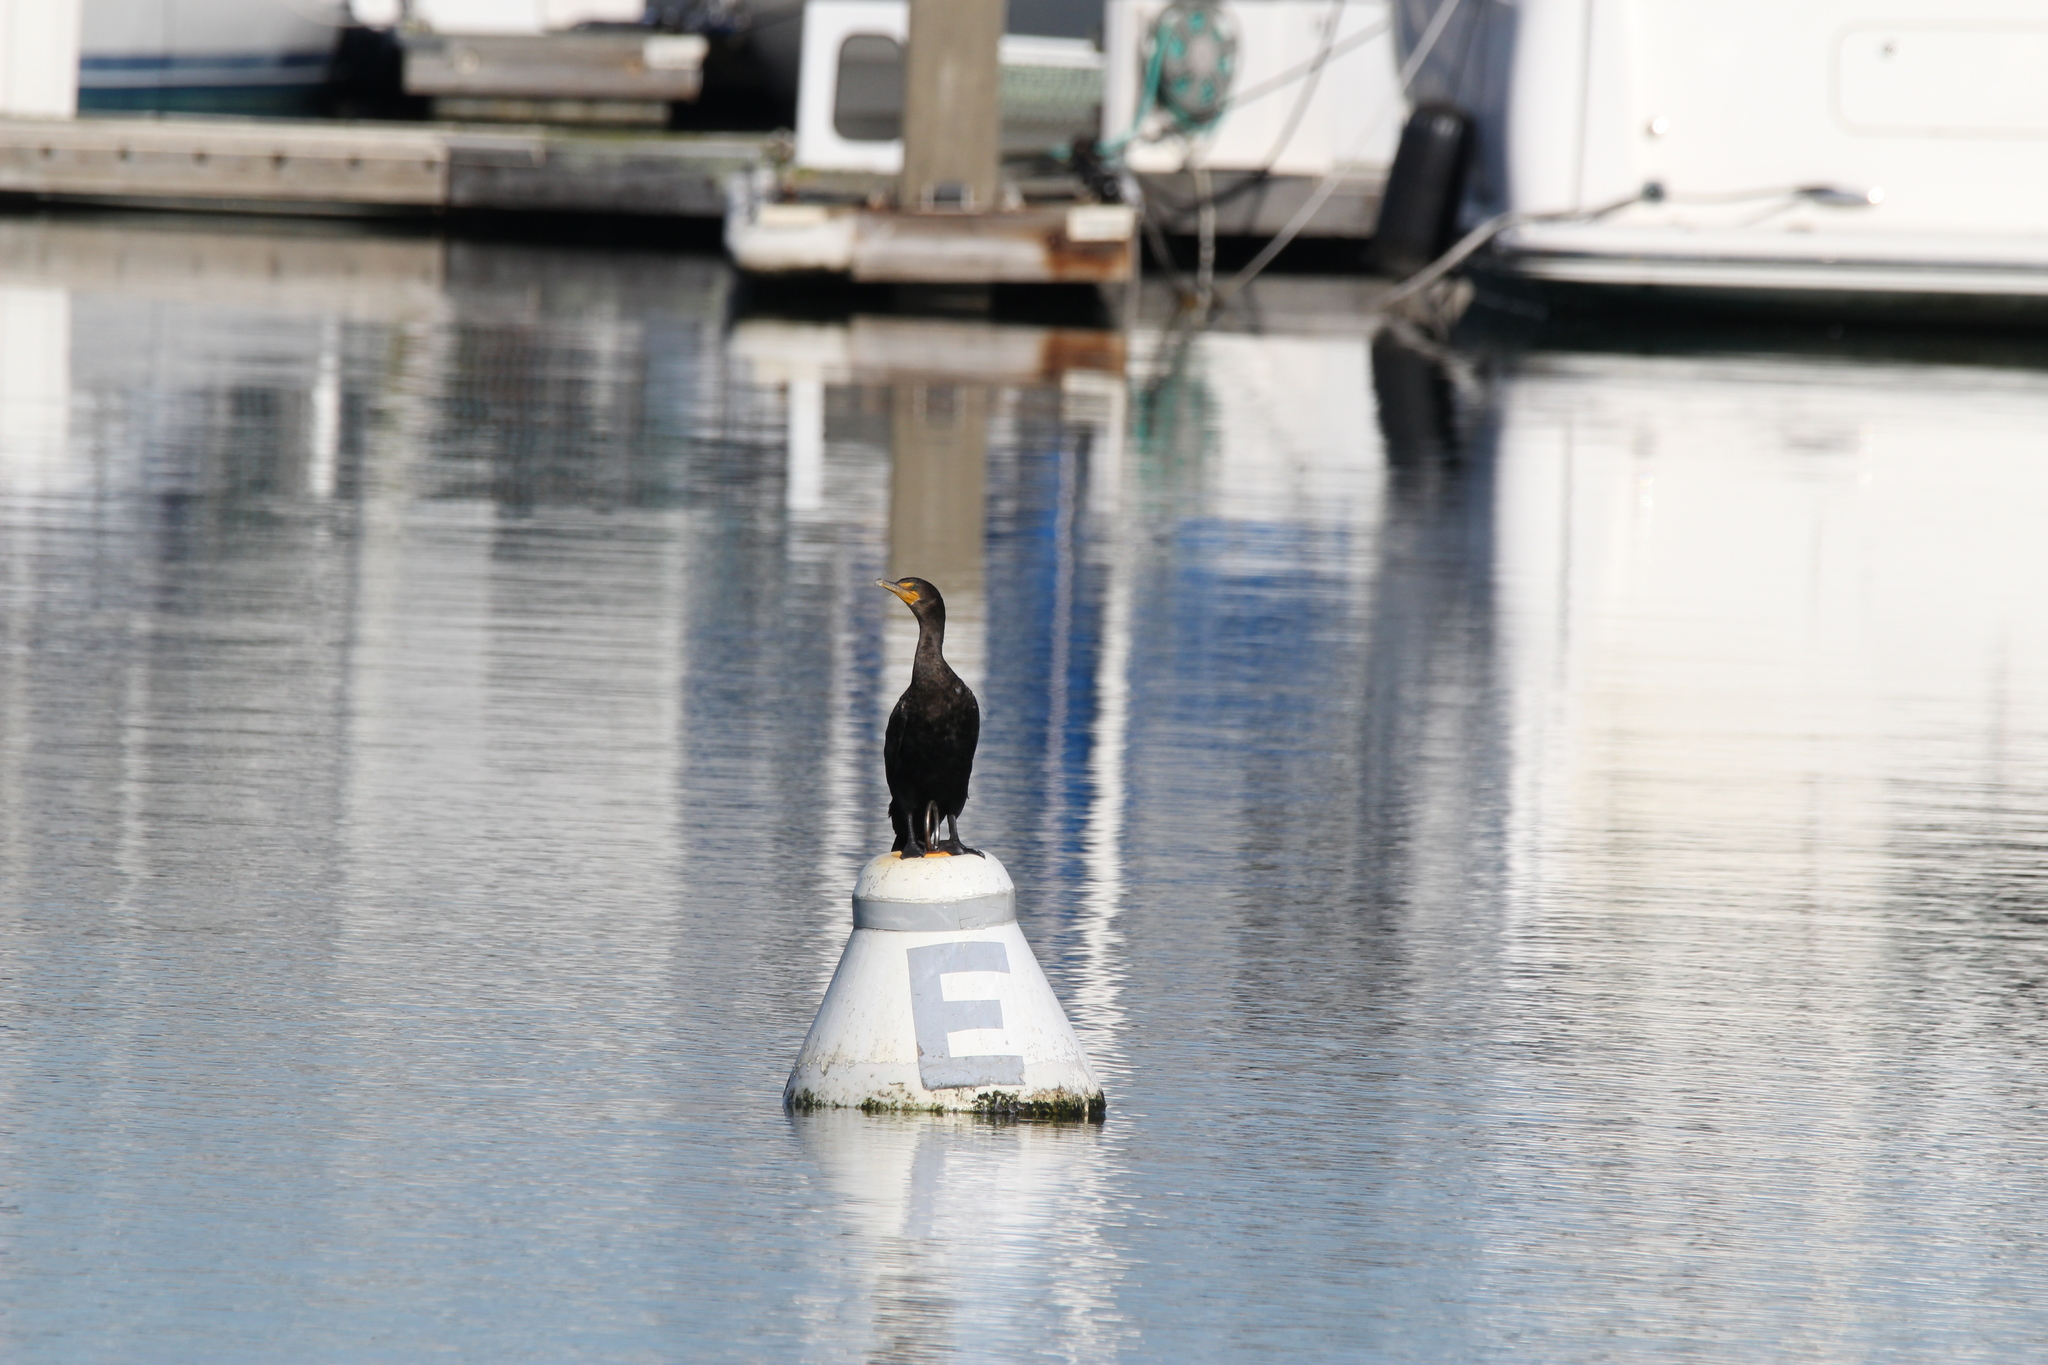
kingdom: Animalia
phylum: Chordata
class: Aves
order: Suliformes
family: Phalacrocoracidae
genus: Phalacrocorax
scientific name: Phalacrocorax auritus
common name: Double-crested cormorant
